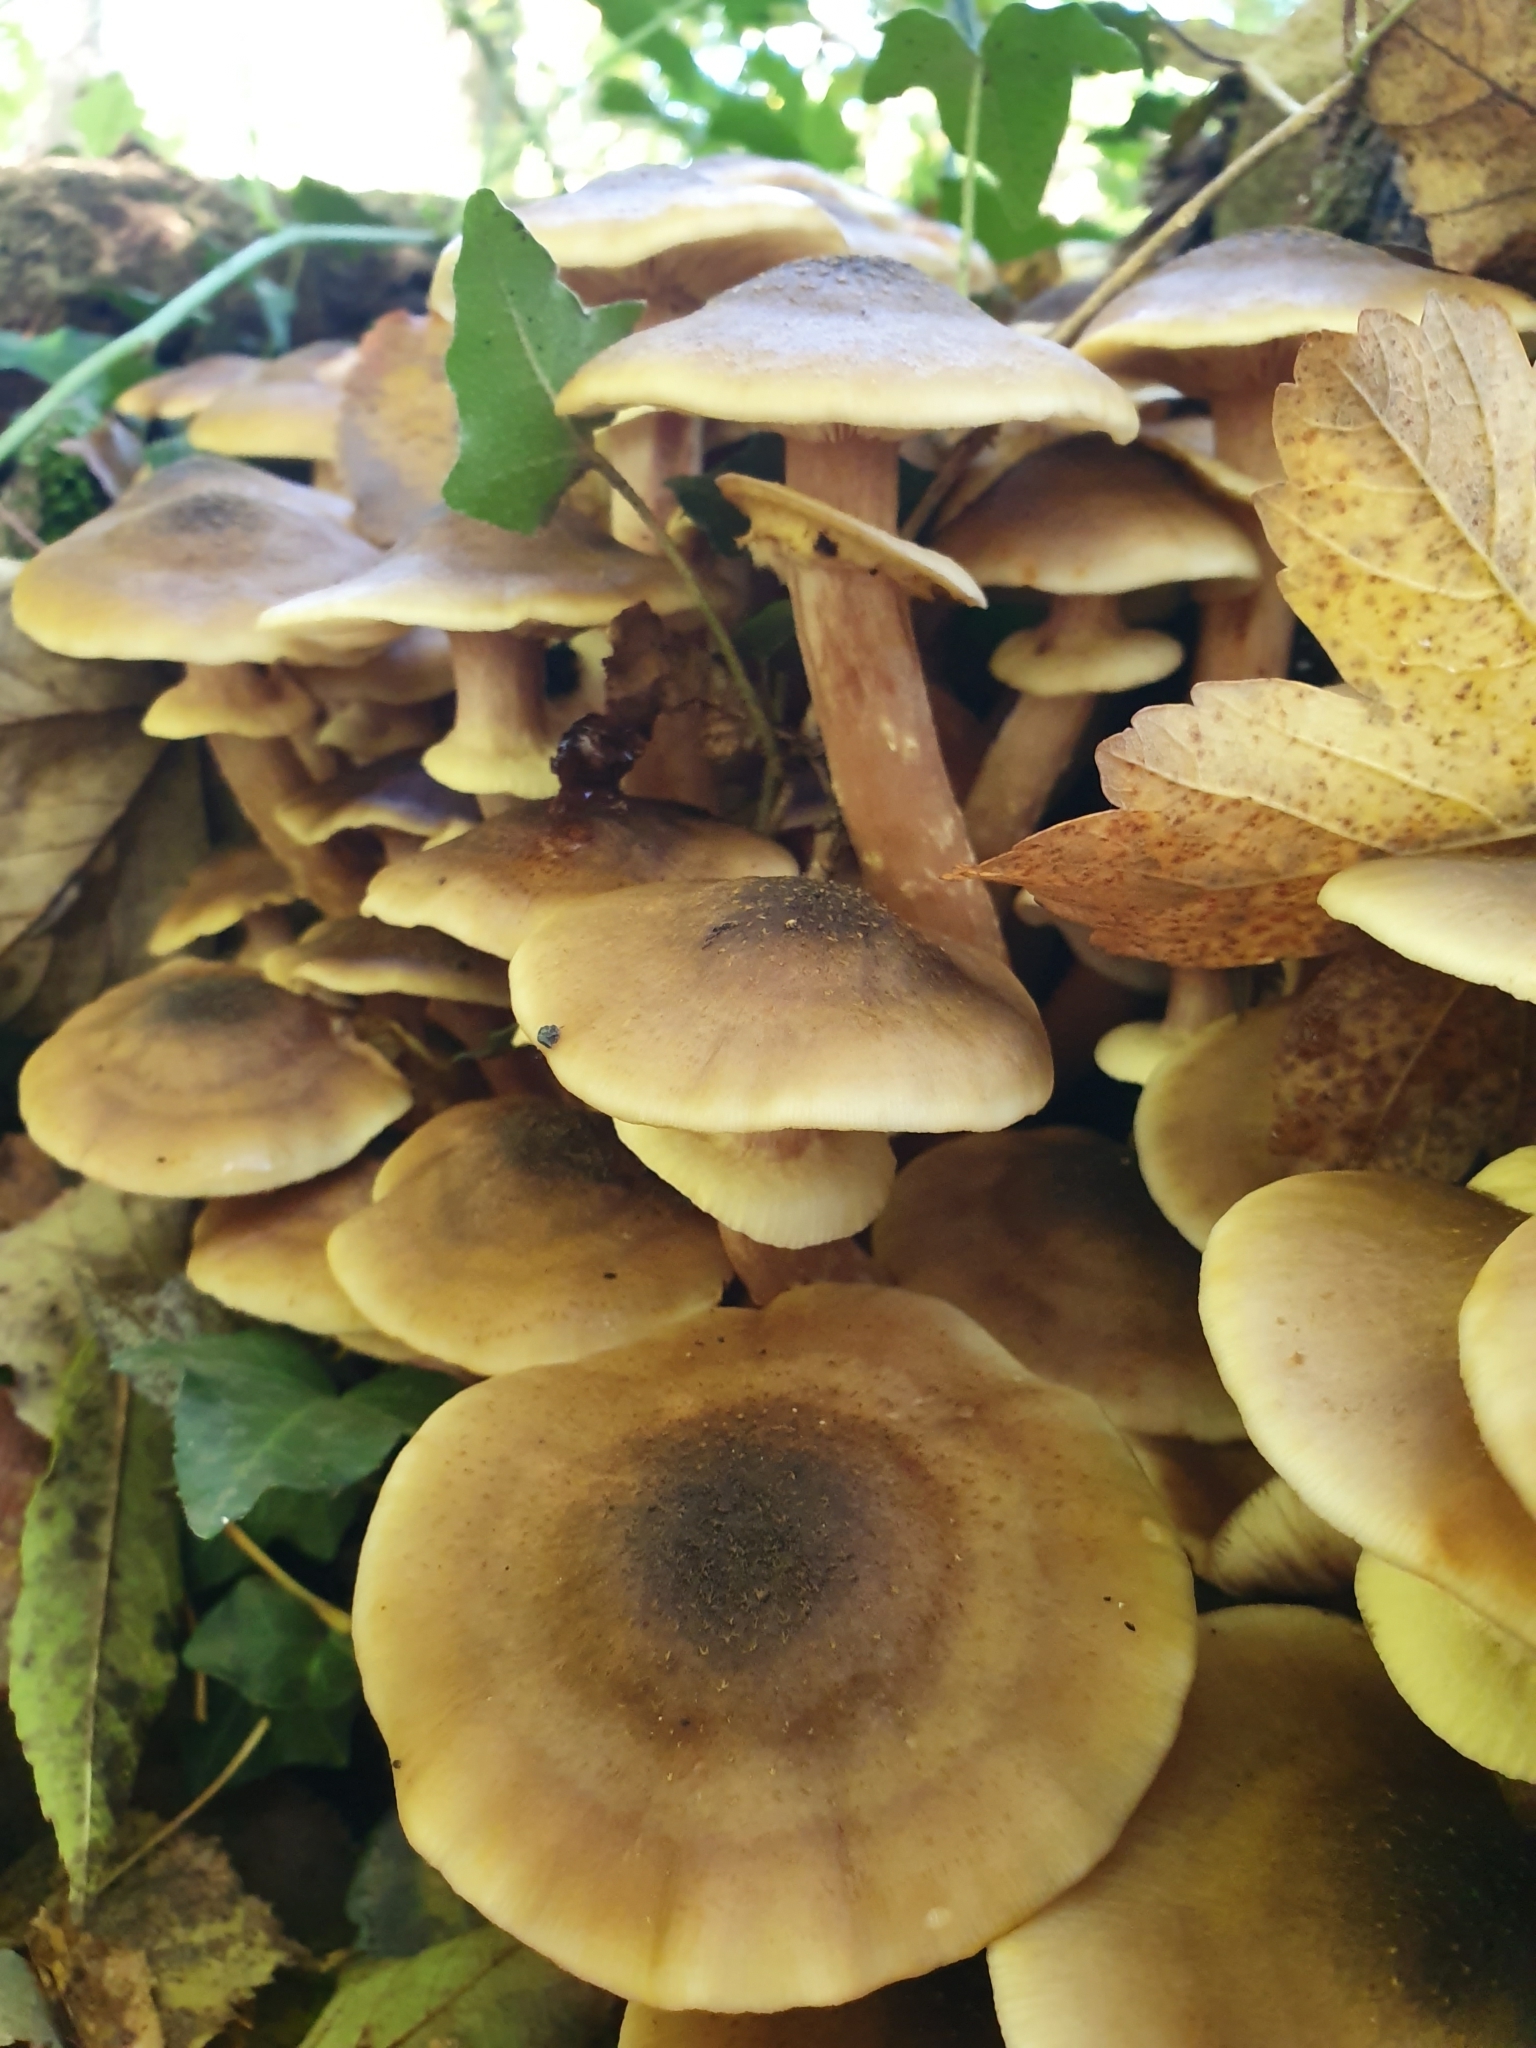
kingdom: Fungi
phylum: Basidiomycota
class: Agaricomycetes
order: Agaricales
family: Physalacriaceae
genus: Armillaria
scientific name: Armillaria mellea
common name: Honey fungus
